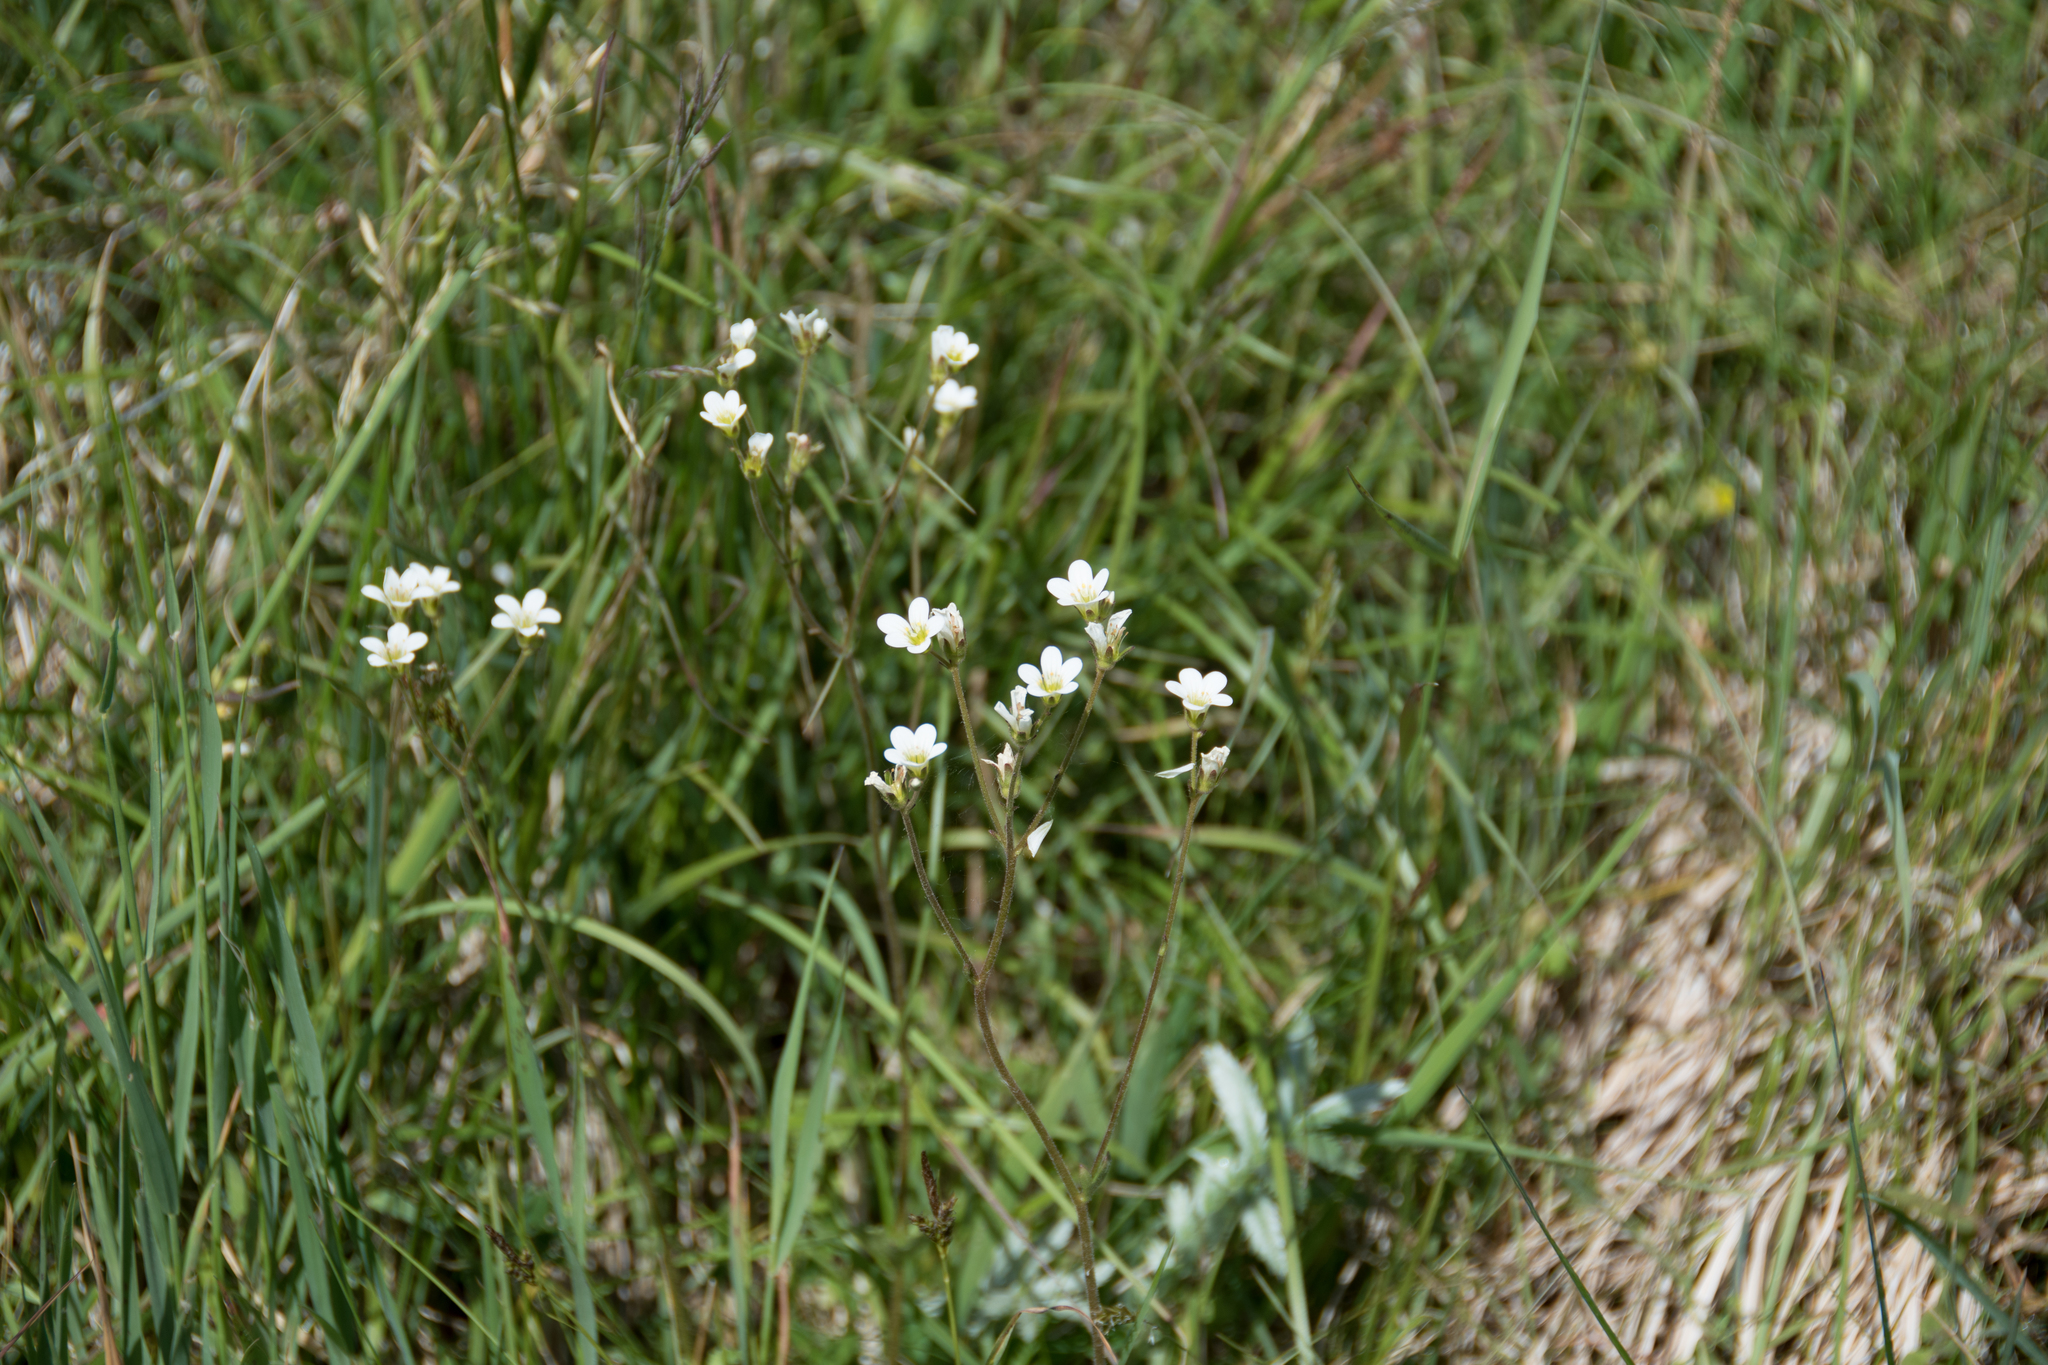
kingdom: Plantae
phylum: Tracheophyta
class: Magnoliopsida
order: Saxifragales
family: Saxifragaceae
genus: Saxifraga
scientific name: Saxifraga granulata
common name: Meadow saxifrage
